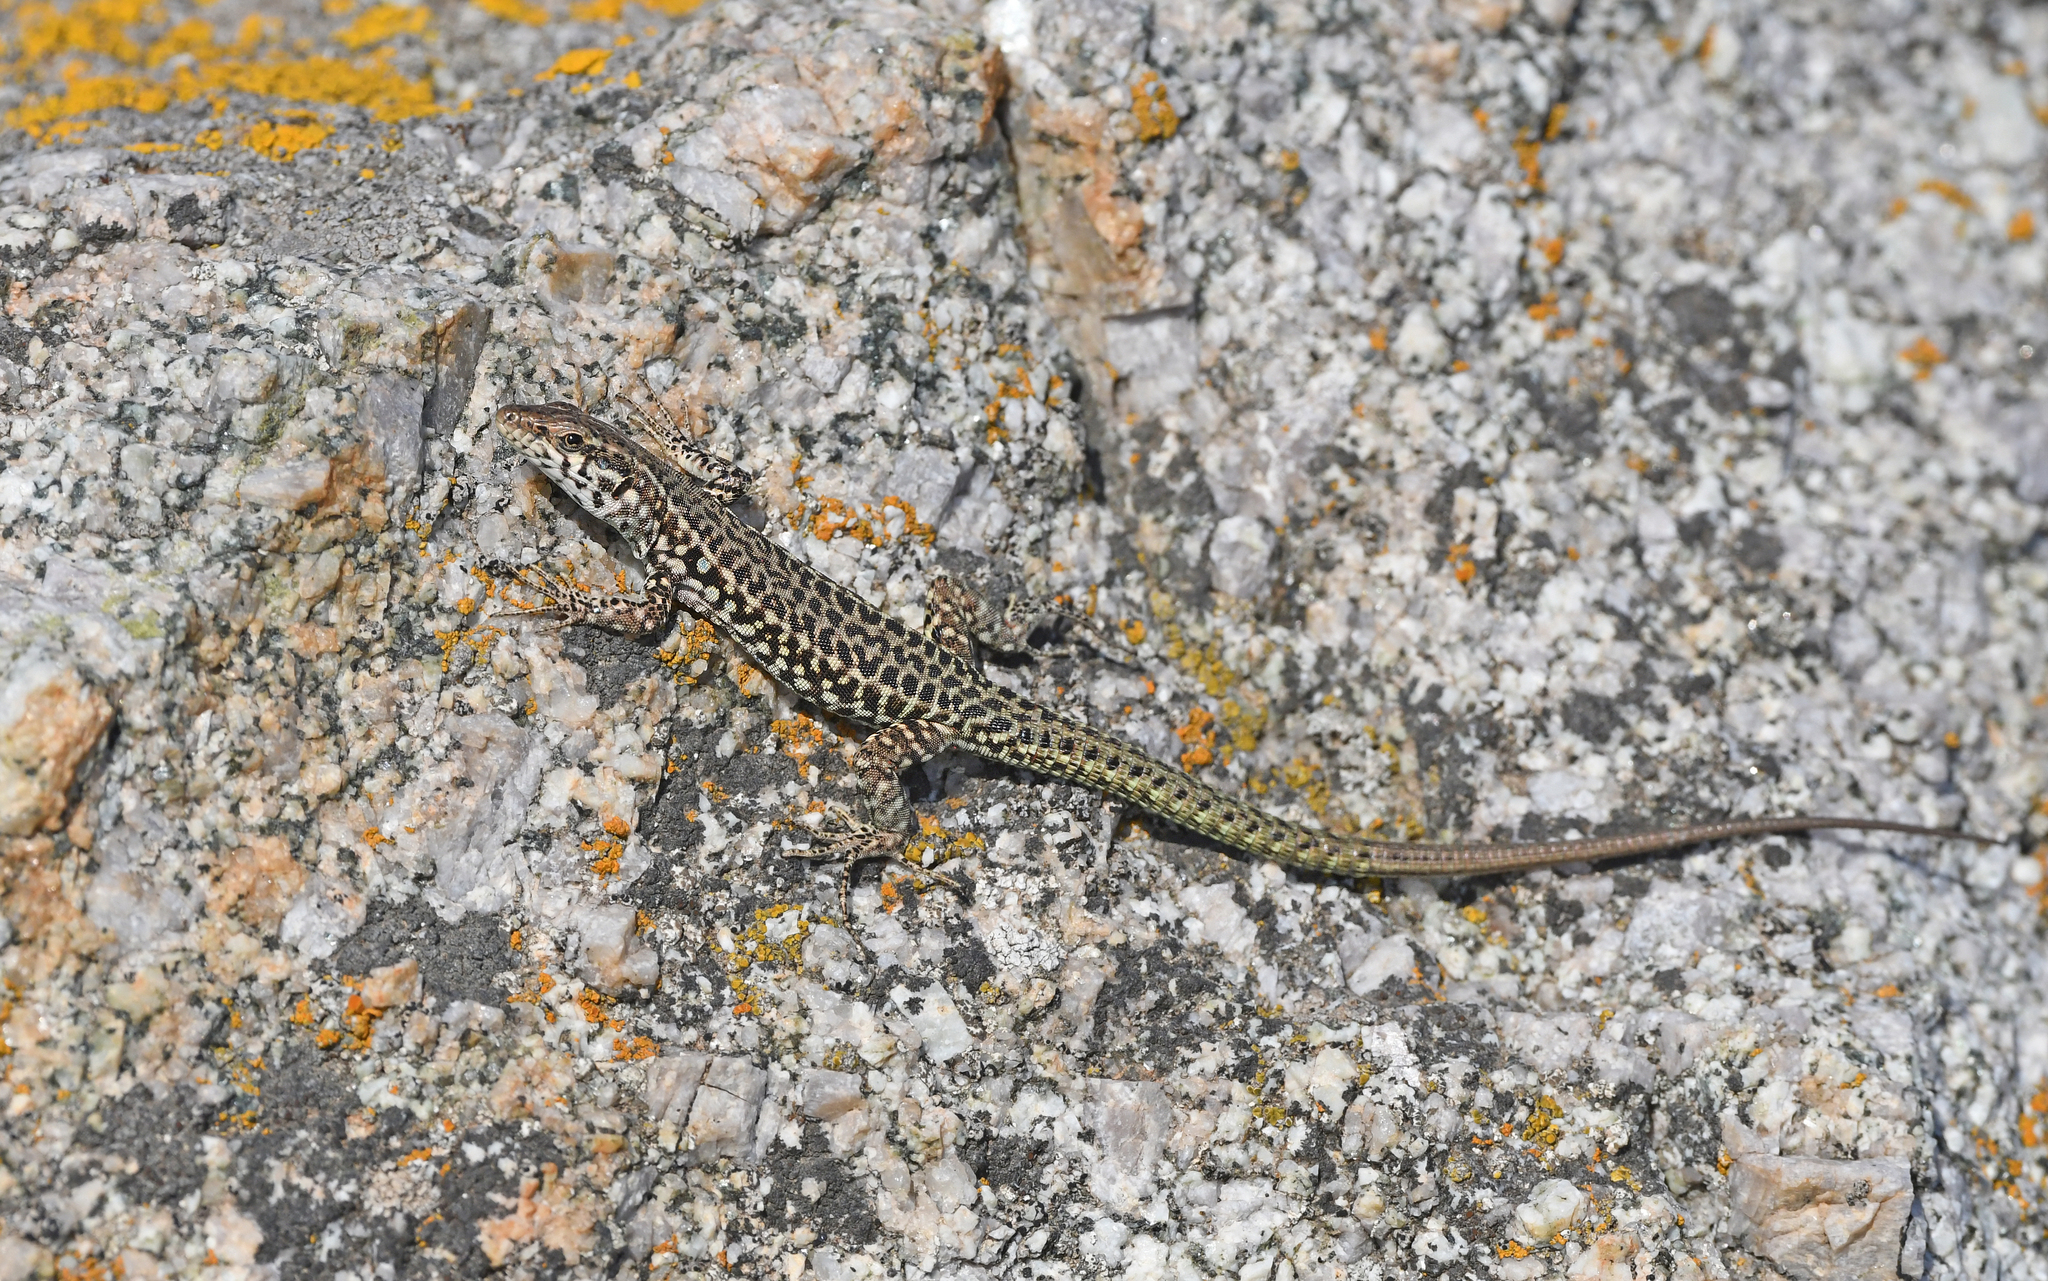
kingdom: Animalia
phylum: Chordata
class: Squamata
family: Lacertidae
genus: Podarcis
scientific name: Podarcis tiliguerta
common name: Tyrrhenian wall lizard
